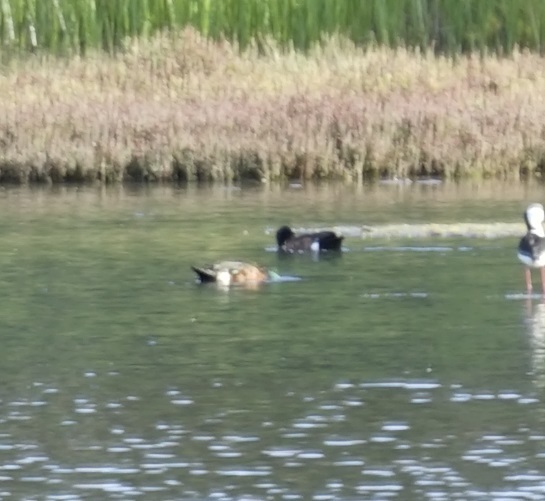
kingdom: Animalia
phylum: Chordata
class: Aves
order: Anseriformes
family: Anatidae
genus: Anas
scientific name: Anas castanea
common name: Chestnut teal
